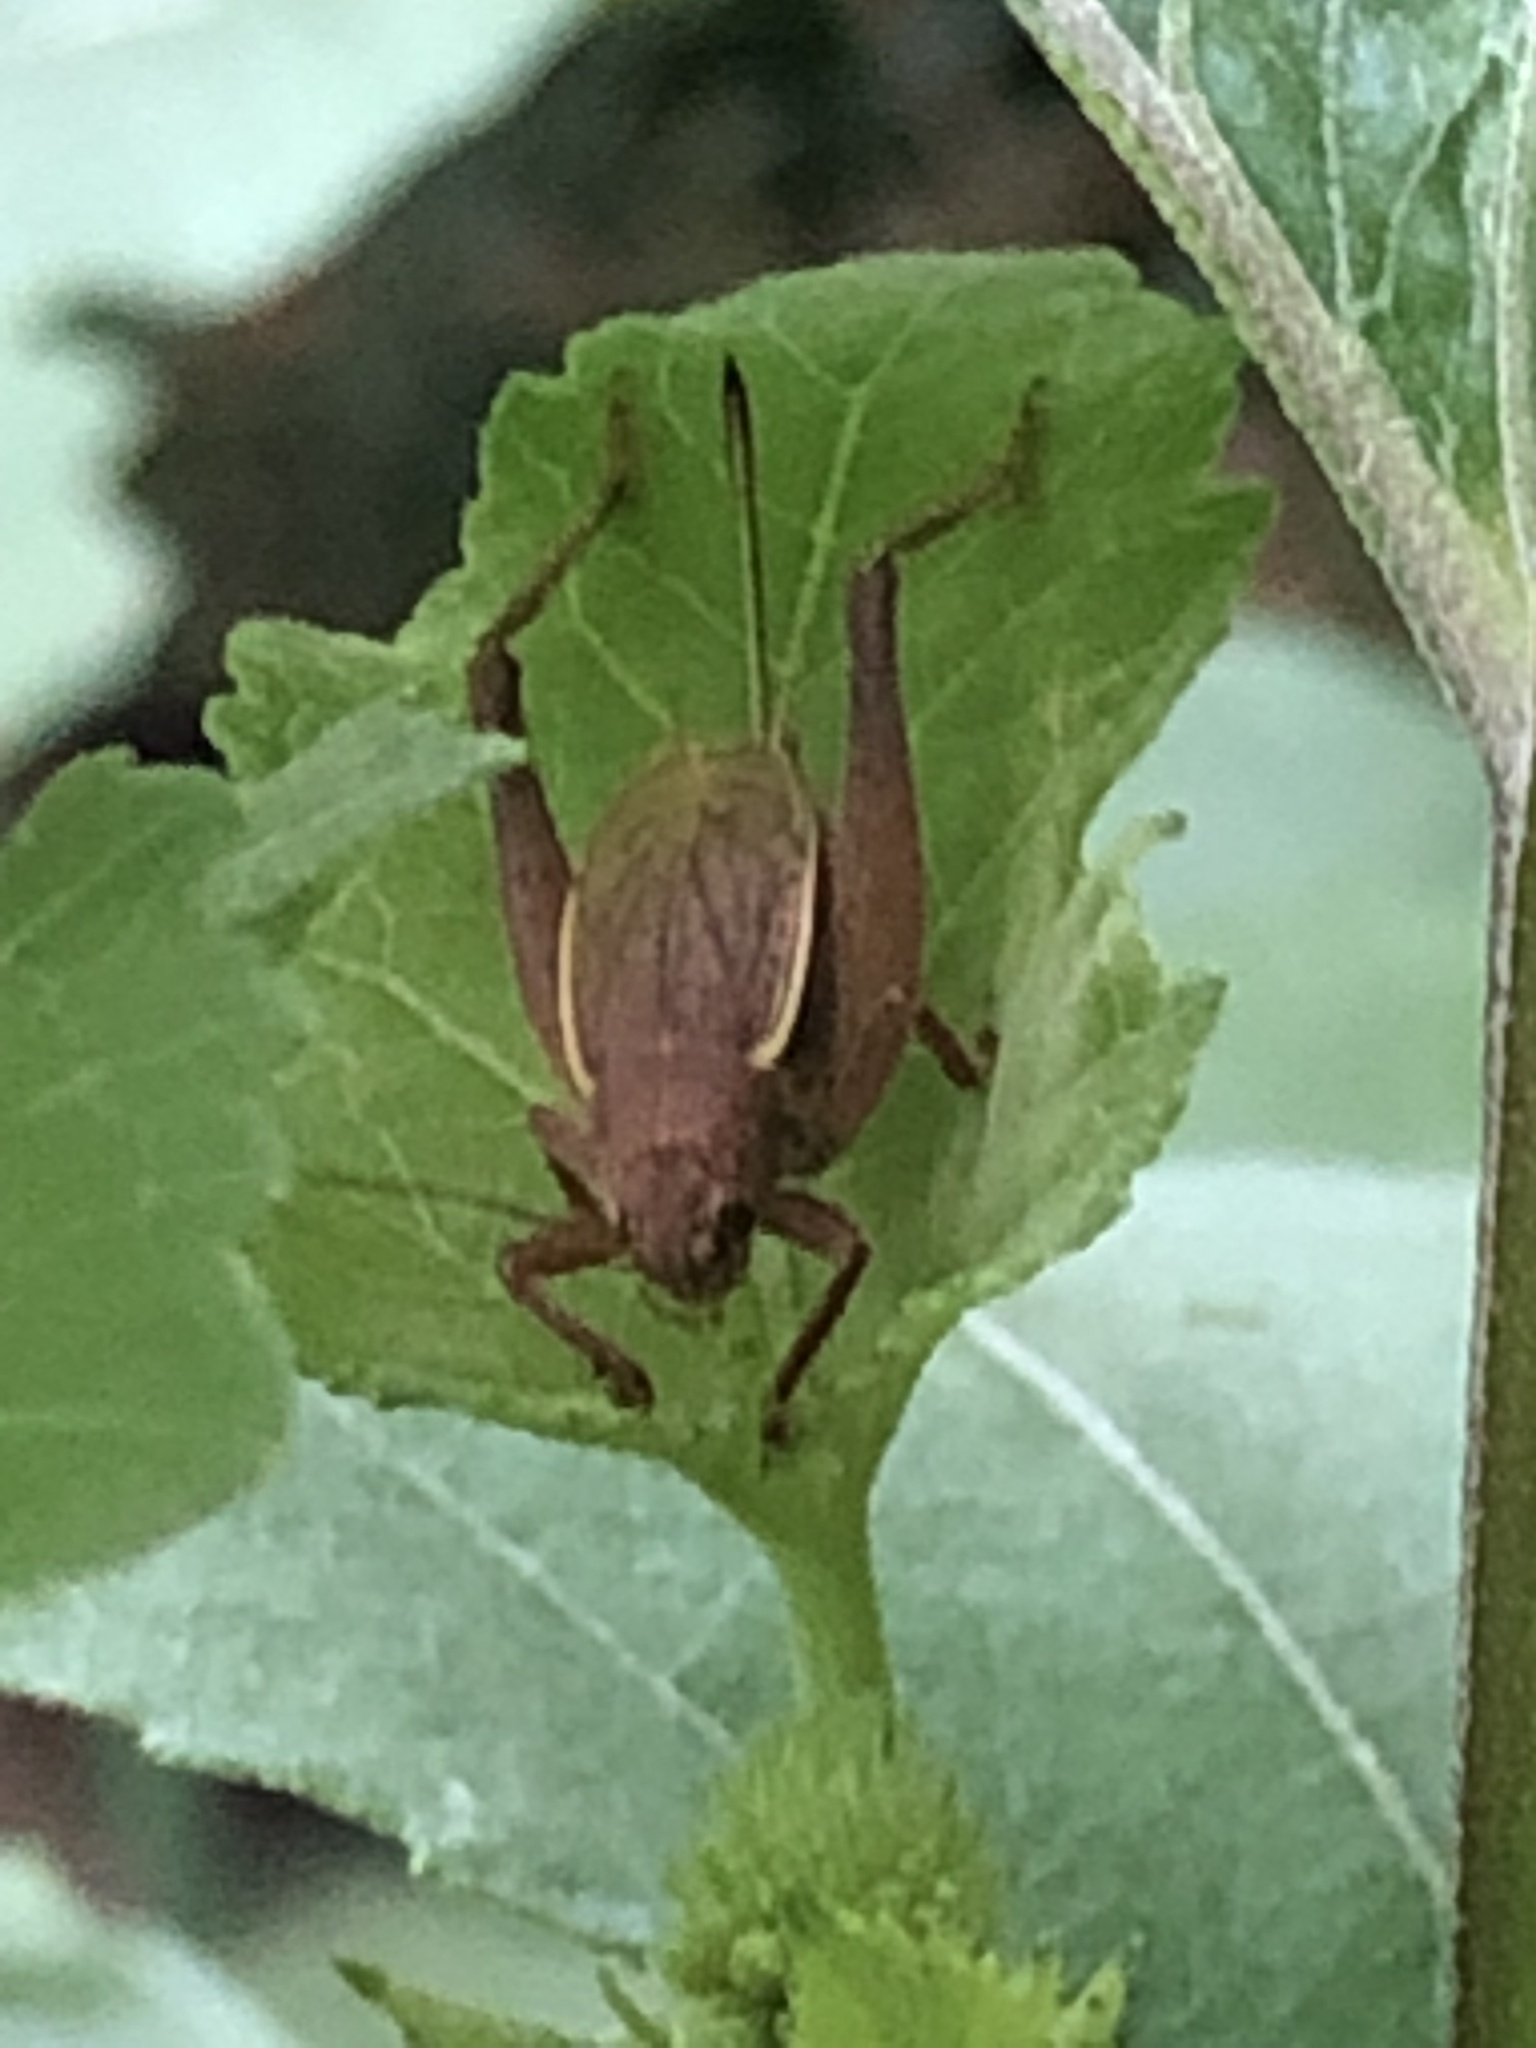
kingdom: Animalia
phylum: Arthropoda
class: Insecta
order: Orthoptera
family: Gryllidae
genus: Hapithus
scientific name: Hapithus agitator
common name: Restless bush cricket
